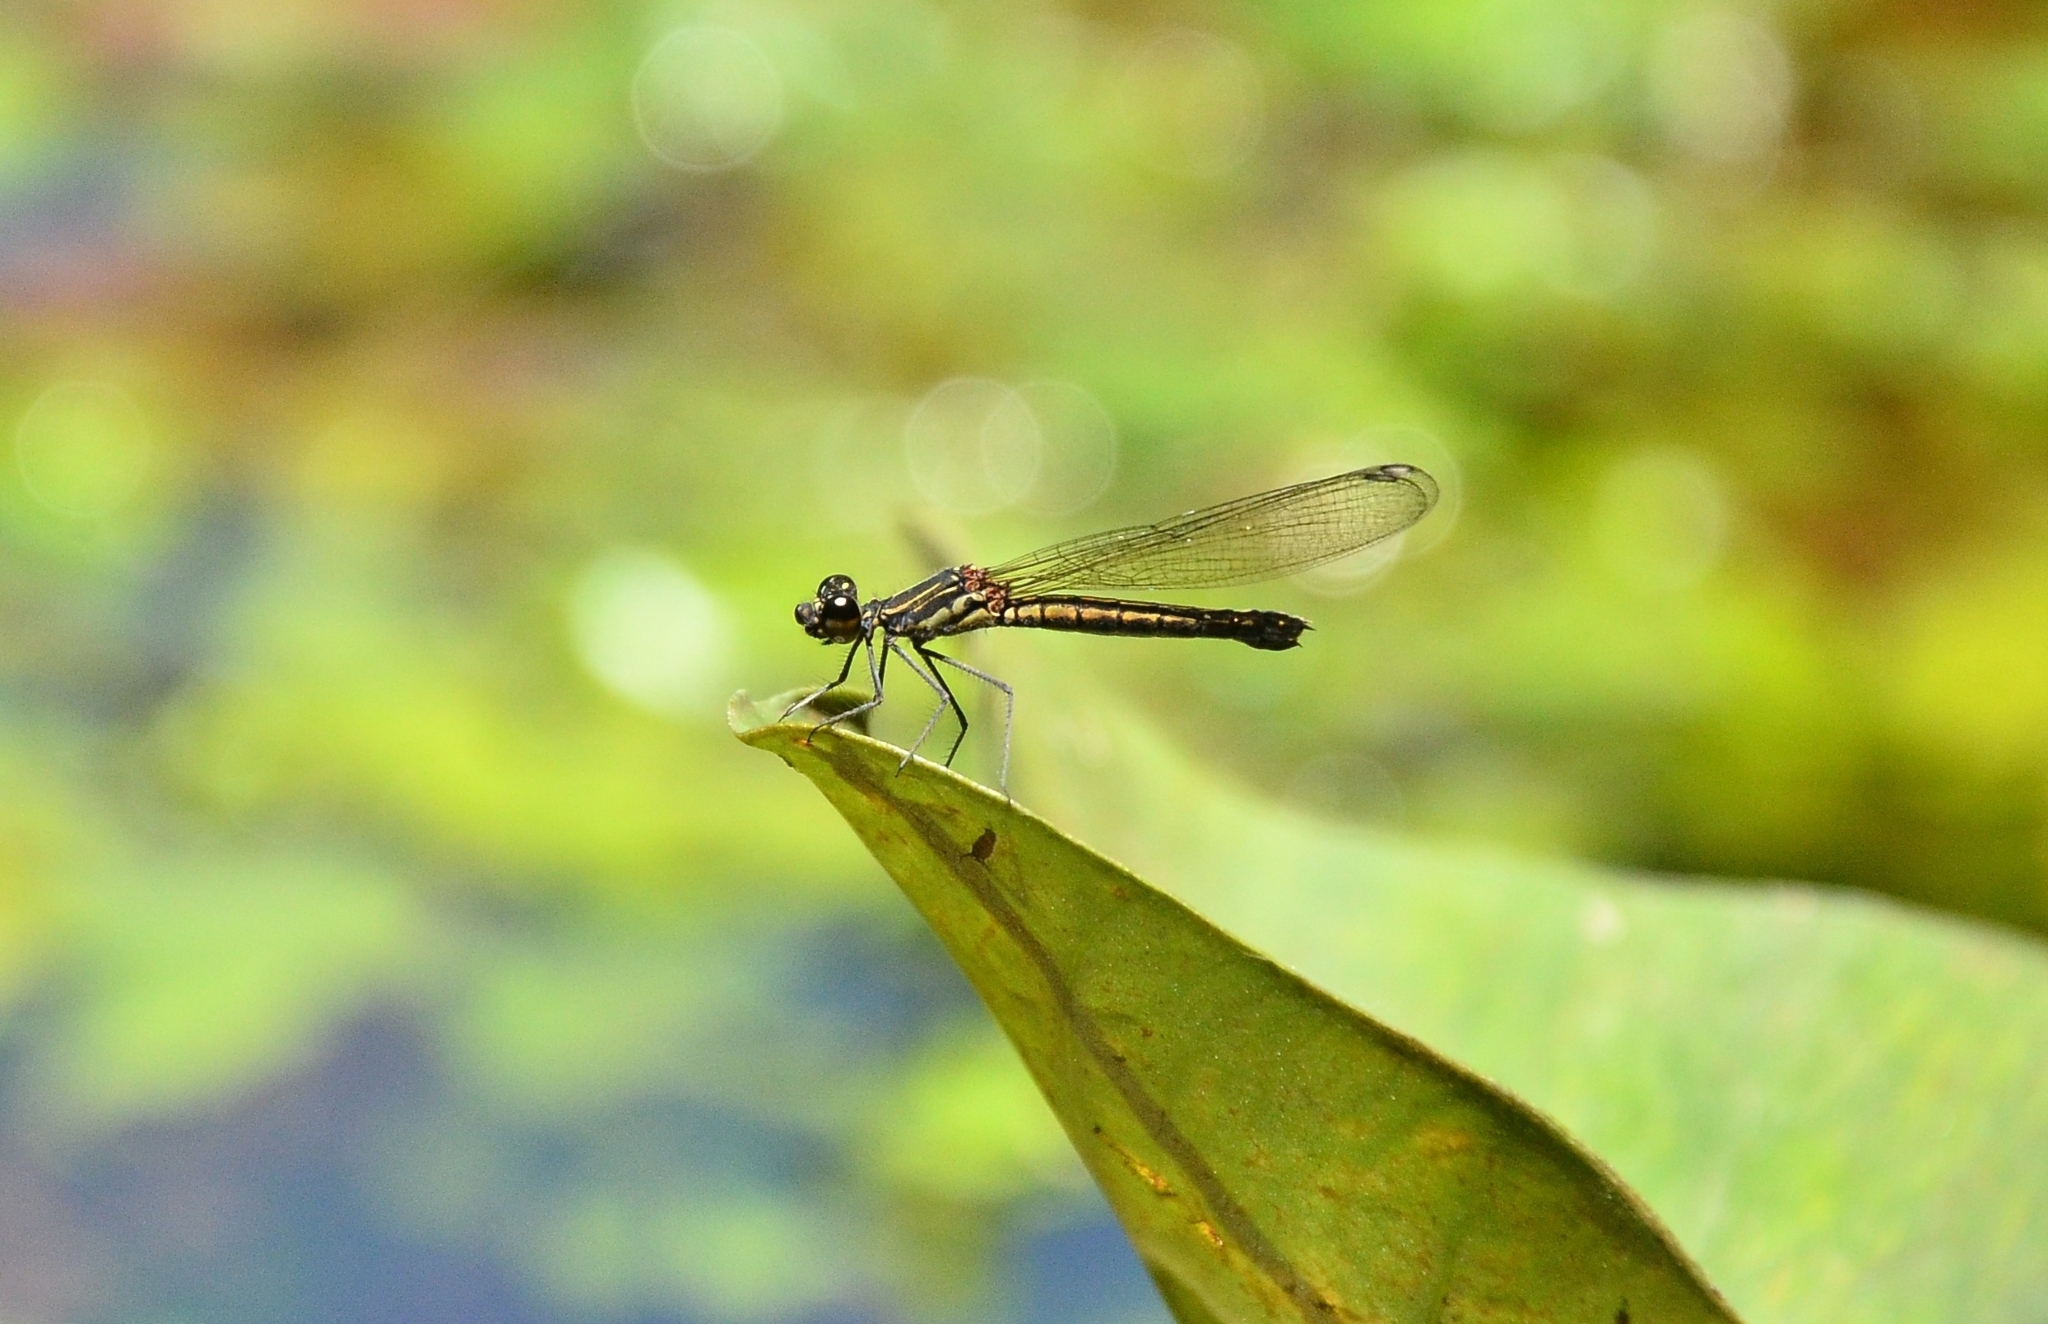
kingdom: Animalia
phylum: Arthropoda
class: Insecta
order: Odonata
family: Chlorocyphidae
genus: Libellago
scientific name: Libellago indica
